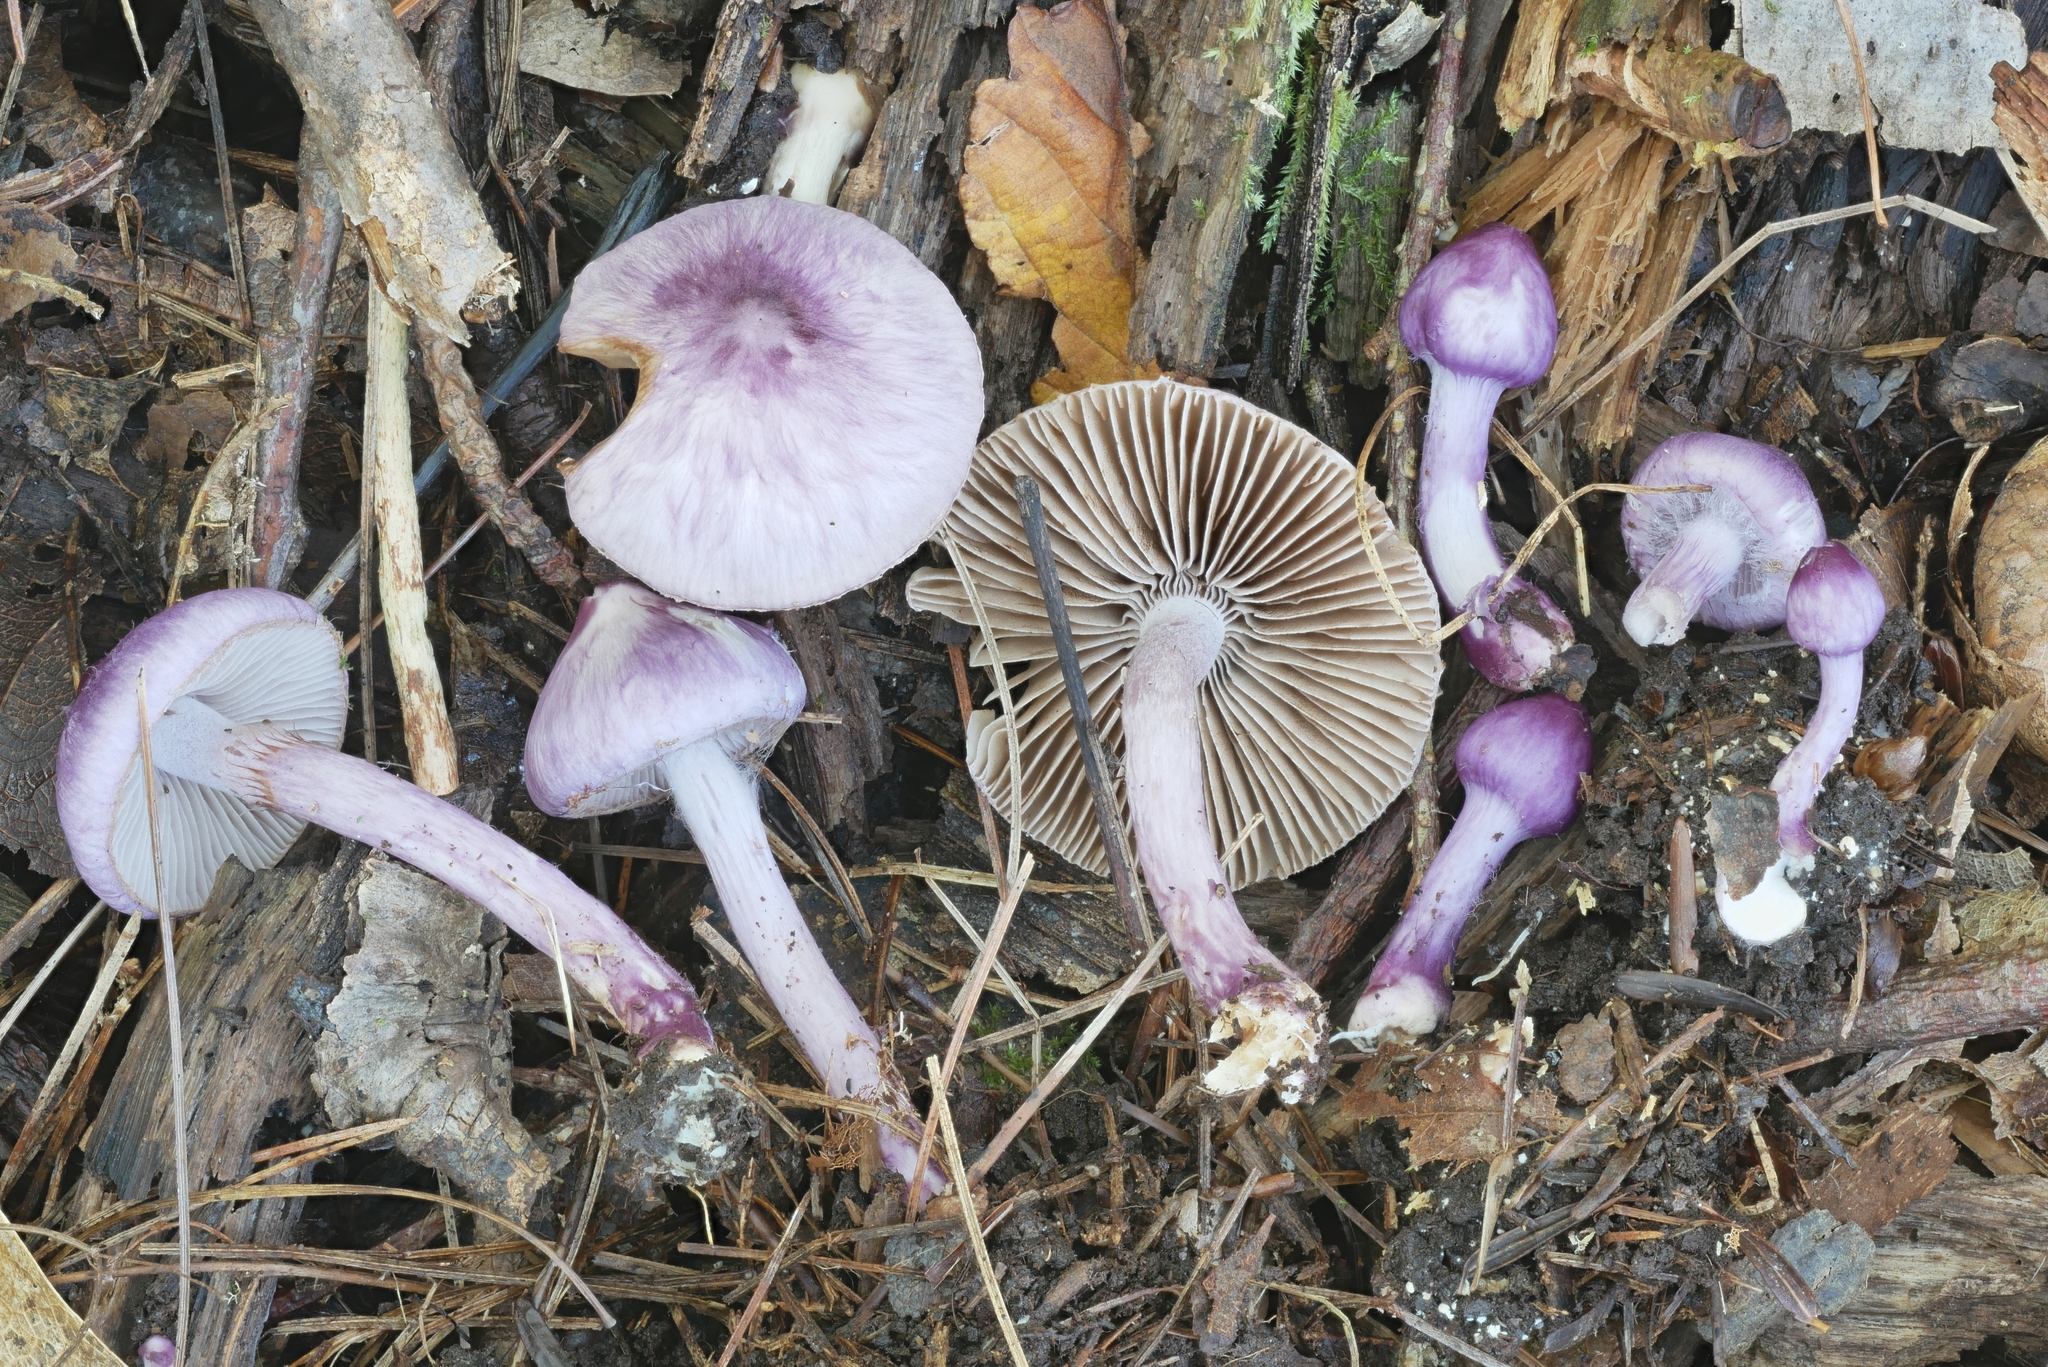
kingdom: Fungi
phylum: Basidiomycota
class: Agaricomycetes
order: Agaricales
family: Inocybaceae
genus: Inocybe
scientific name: Inocybe geophylla
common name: White fibrecap
